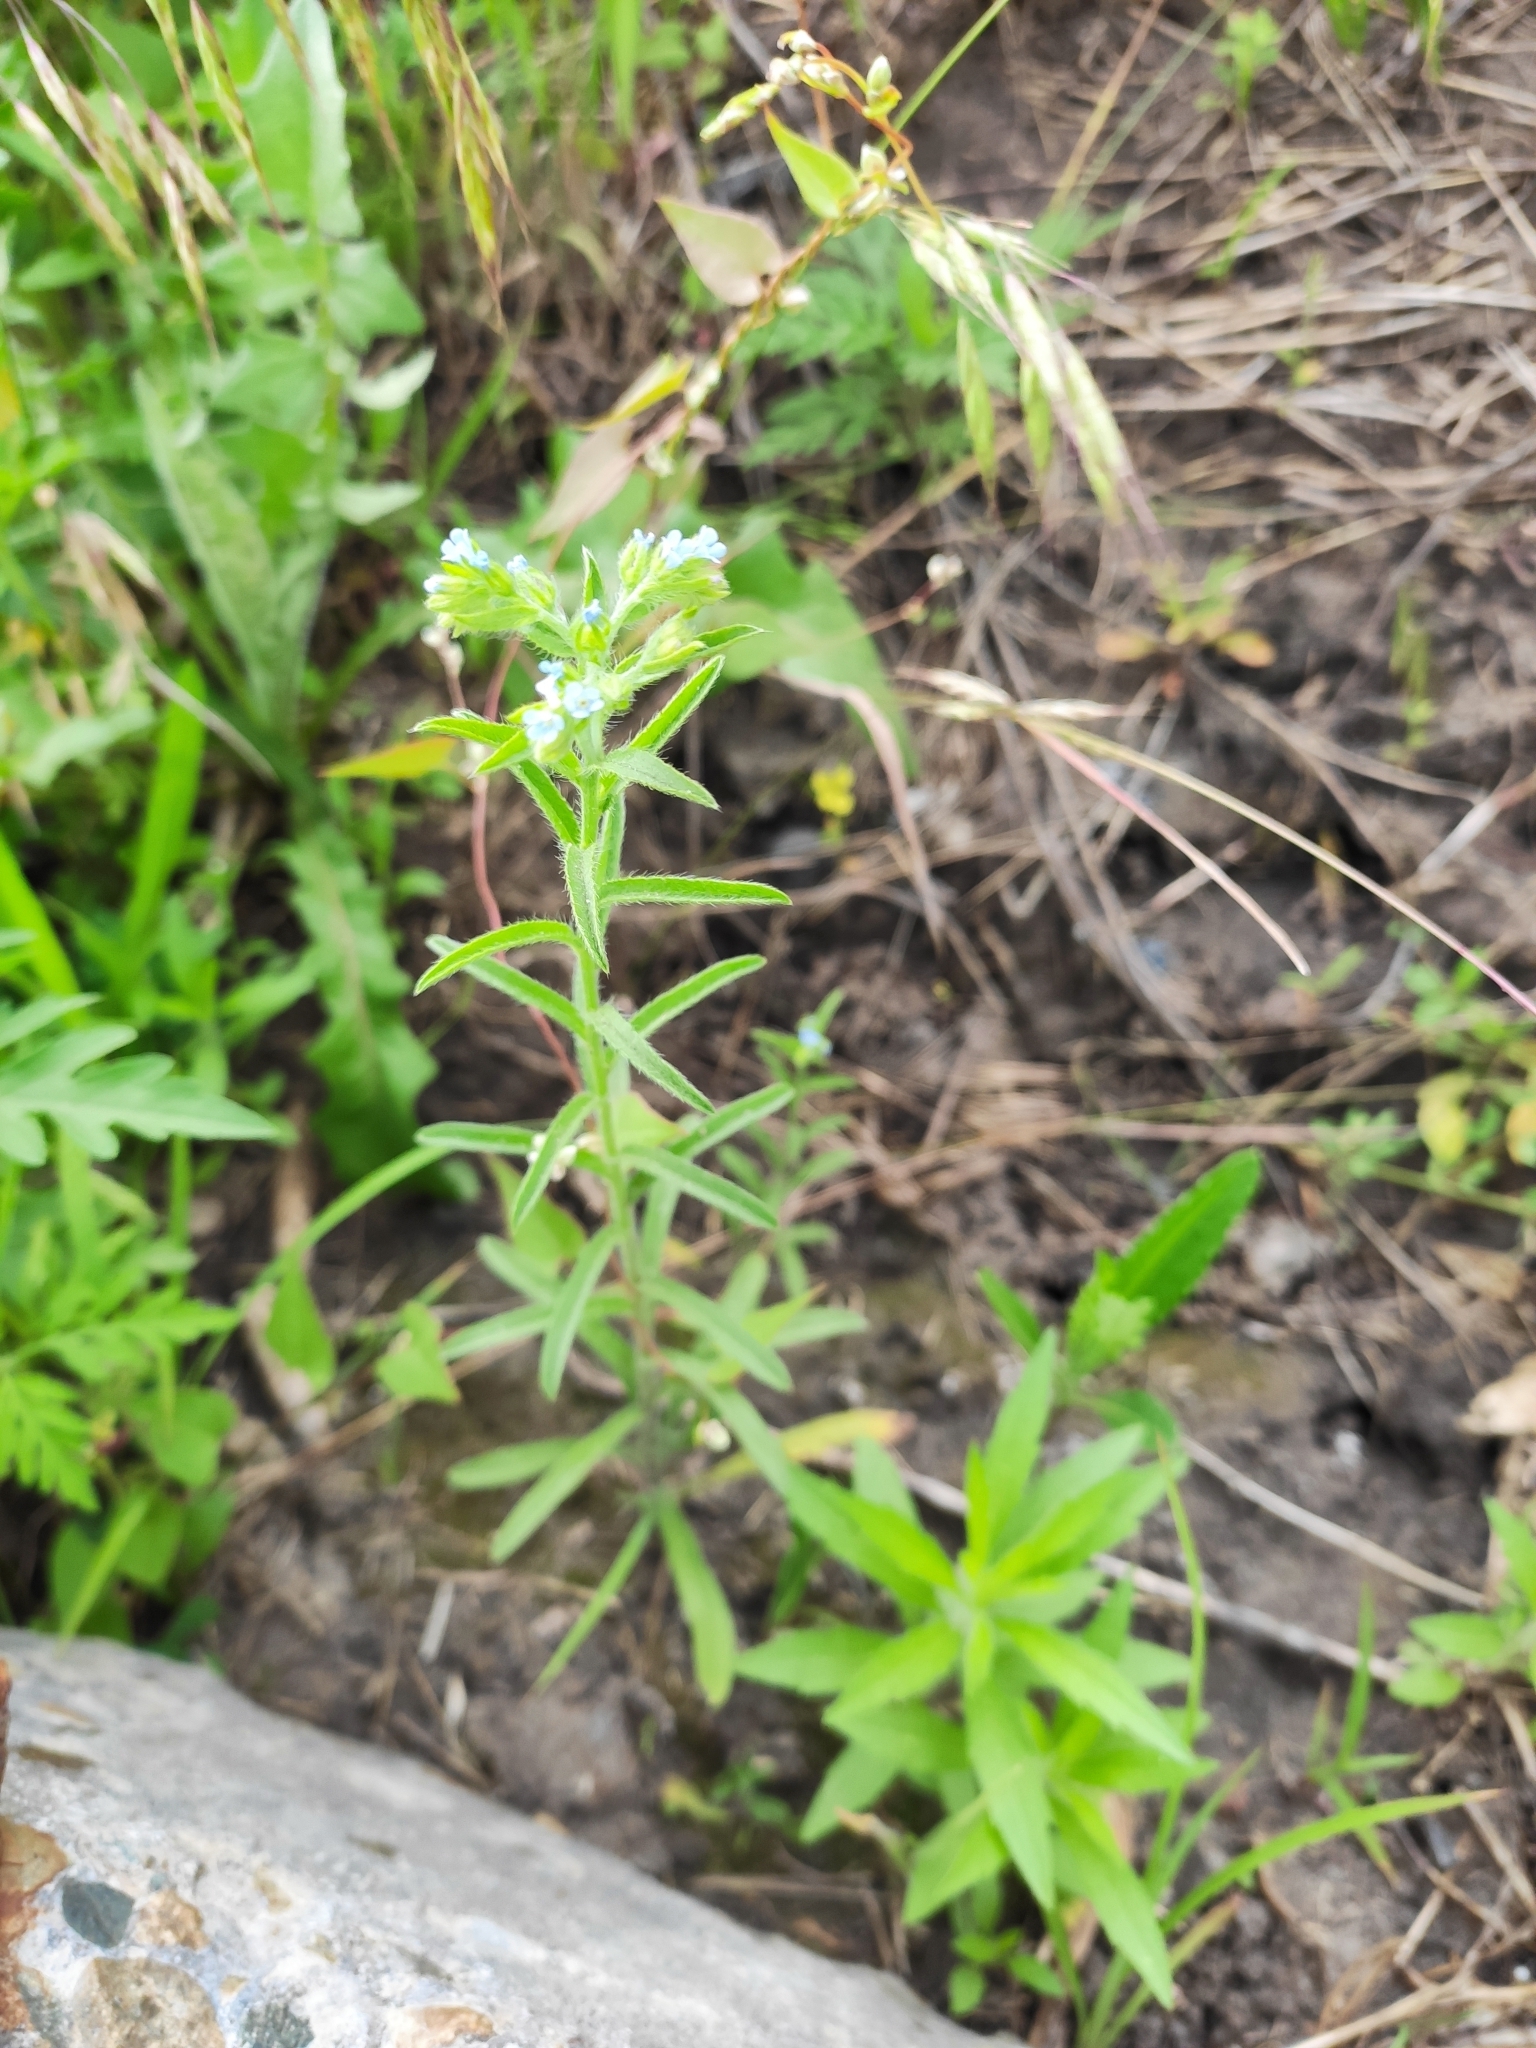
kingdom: Plantae
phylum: Tracheophyta
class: Magnoliopsida
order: Boraginales
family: Boraginaceae
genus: Lappula
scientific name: Lappula squarrosa
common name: European stickseed
